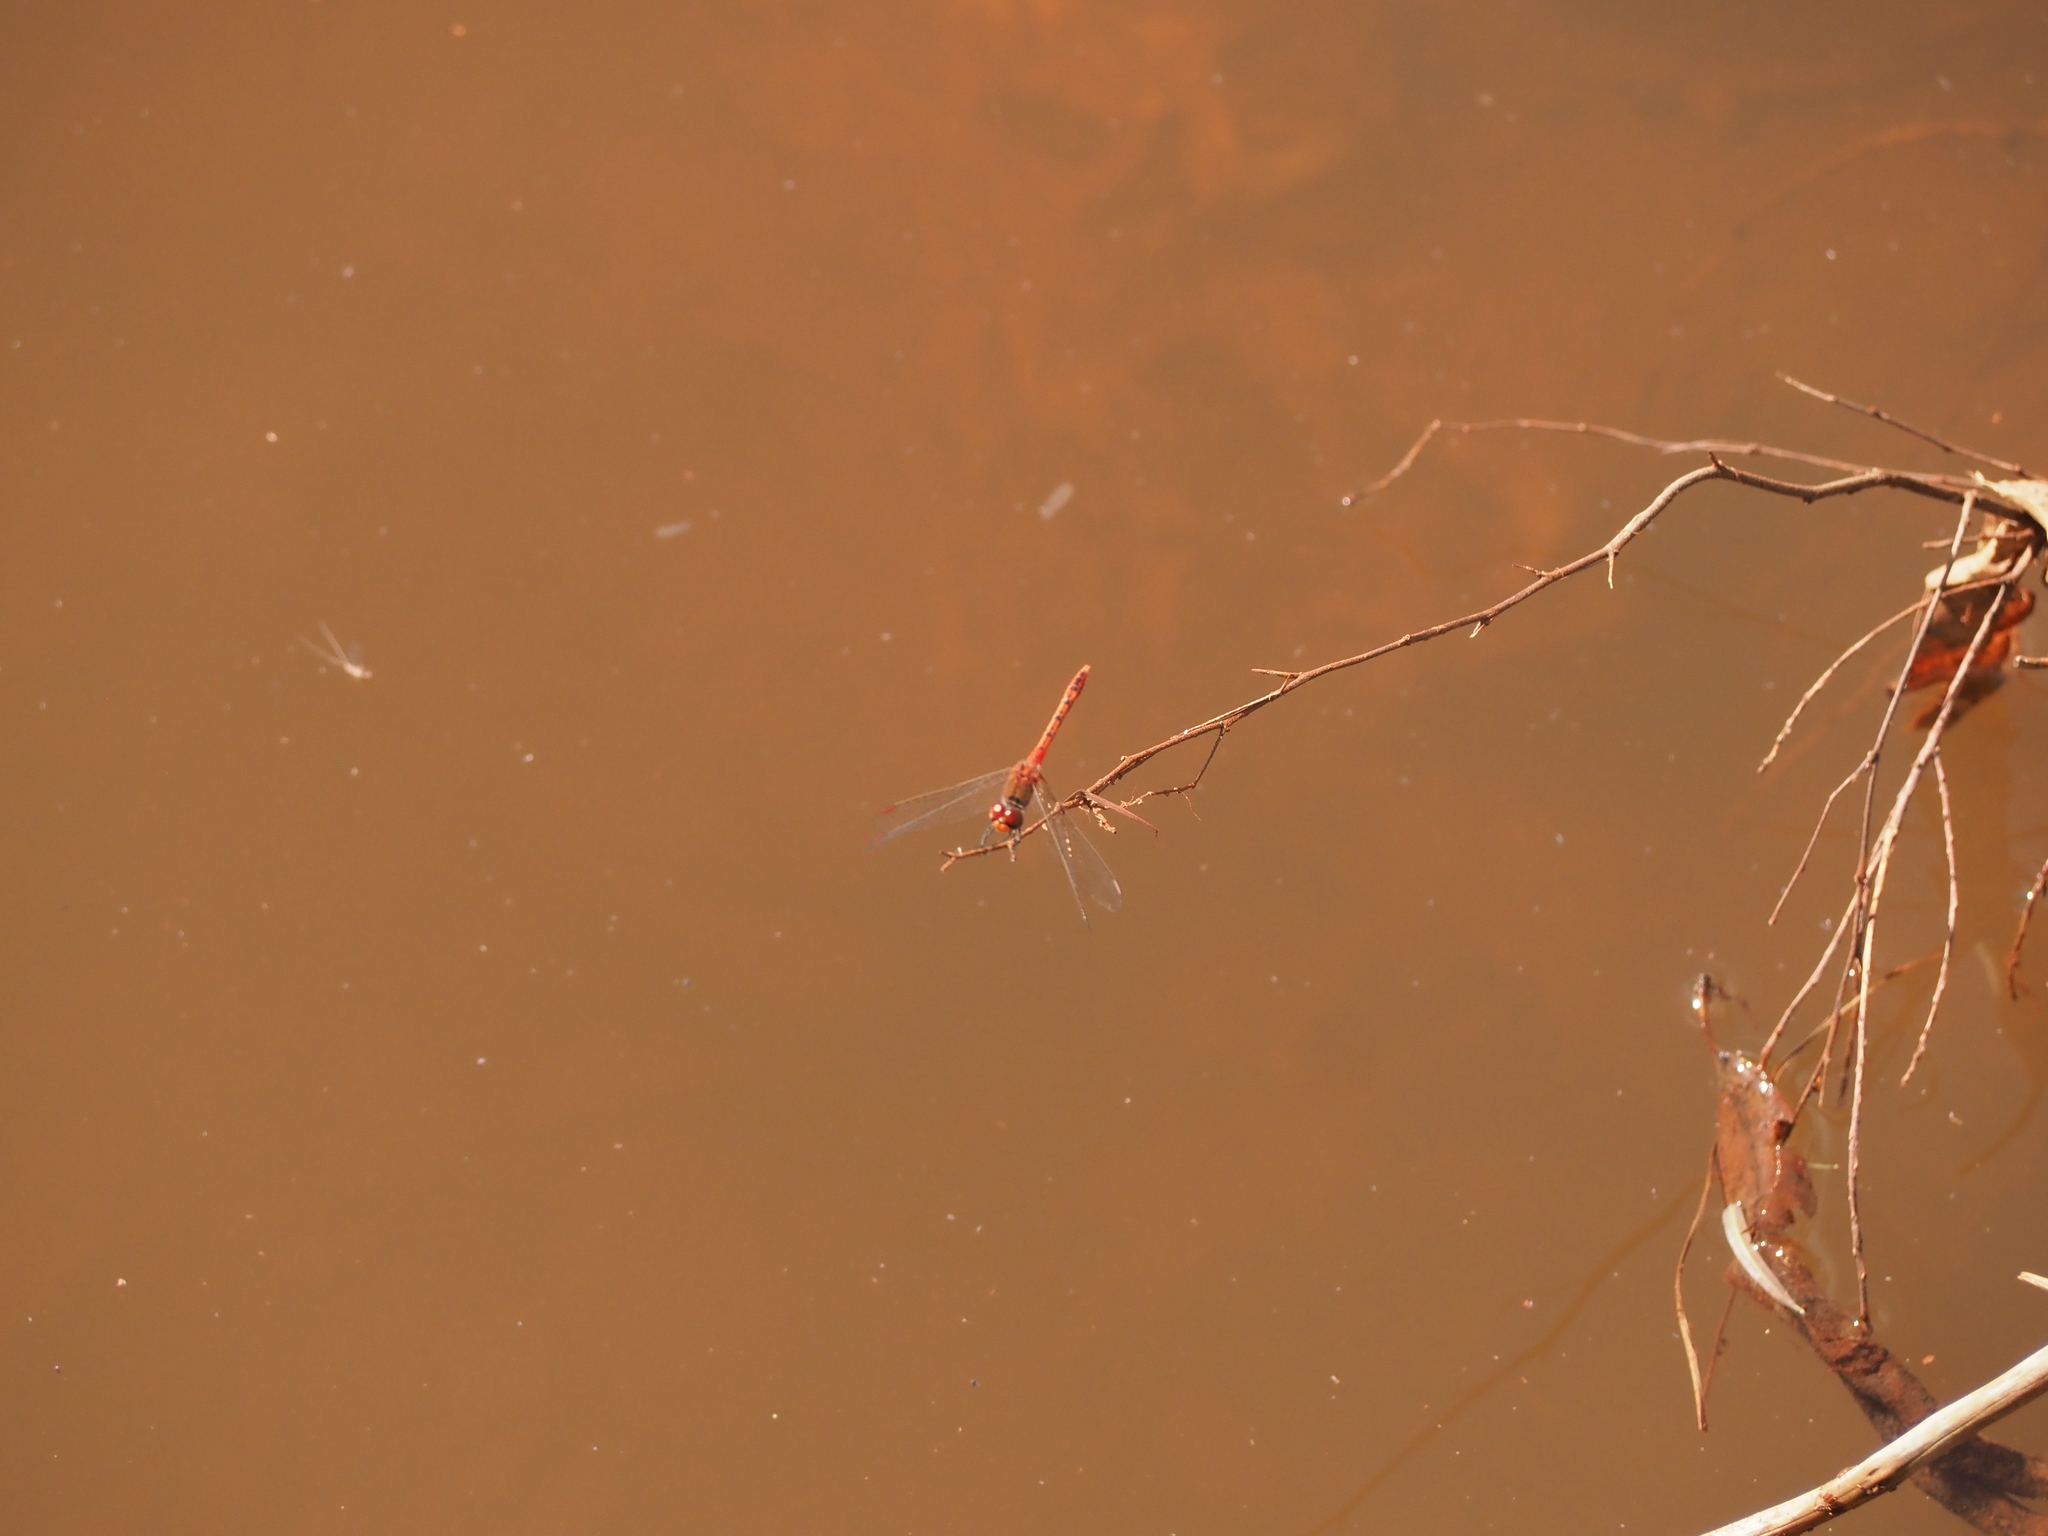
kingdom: Animalia
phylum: Arthropoda
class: Insecta
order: Odonata
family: Libellulidae
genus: Diplacodes
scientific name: Diplacodes bipunctata
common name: Red percher dragonfly
